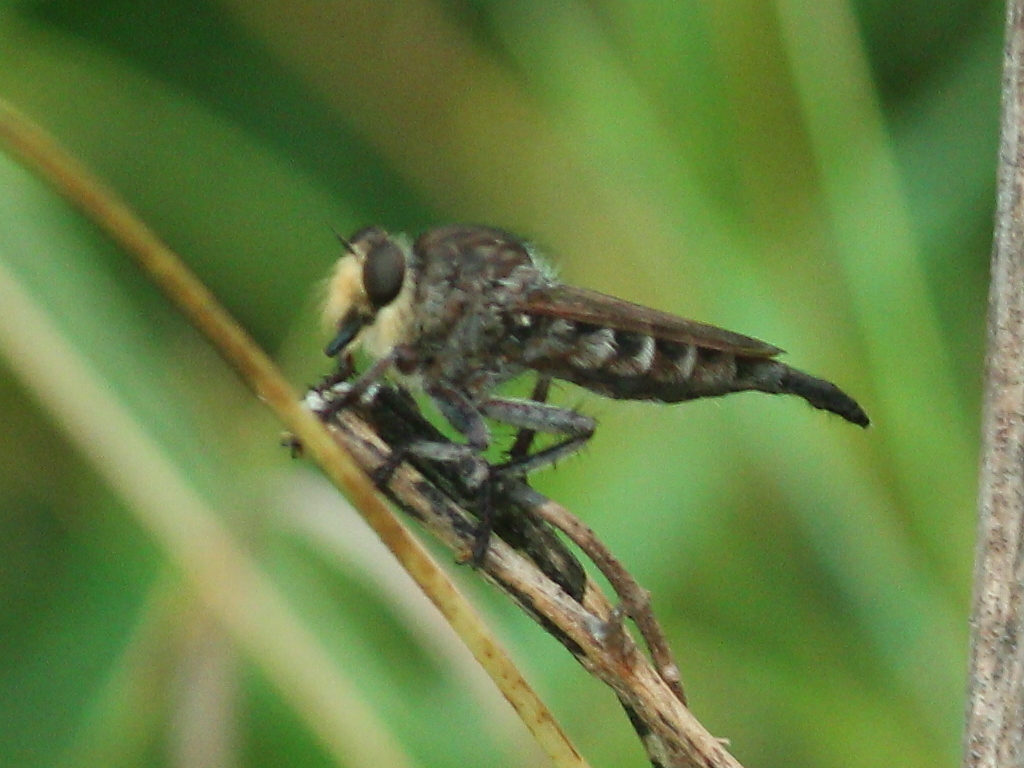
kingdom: Animalia
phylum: Arthropoda
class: Insecta
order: Diptera
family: Asilidae
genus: Promachus
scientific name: Promachus bastardii
